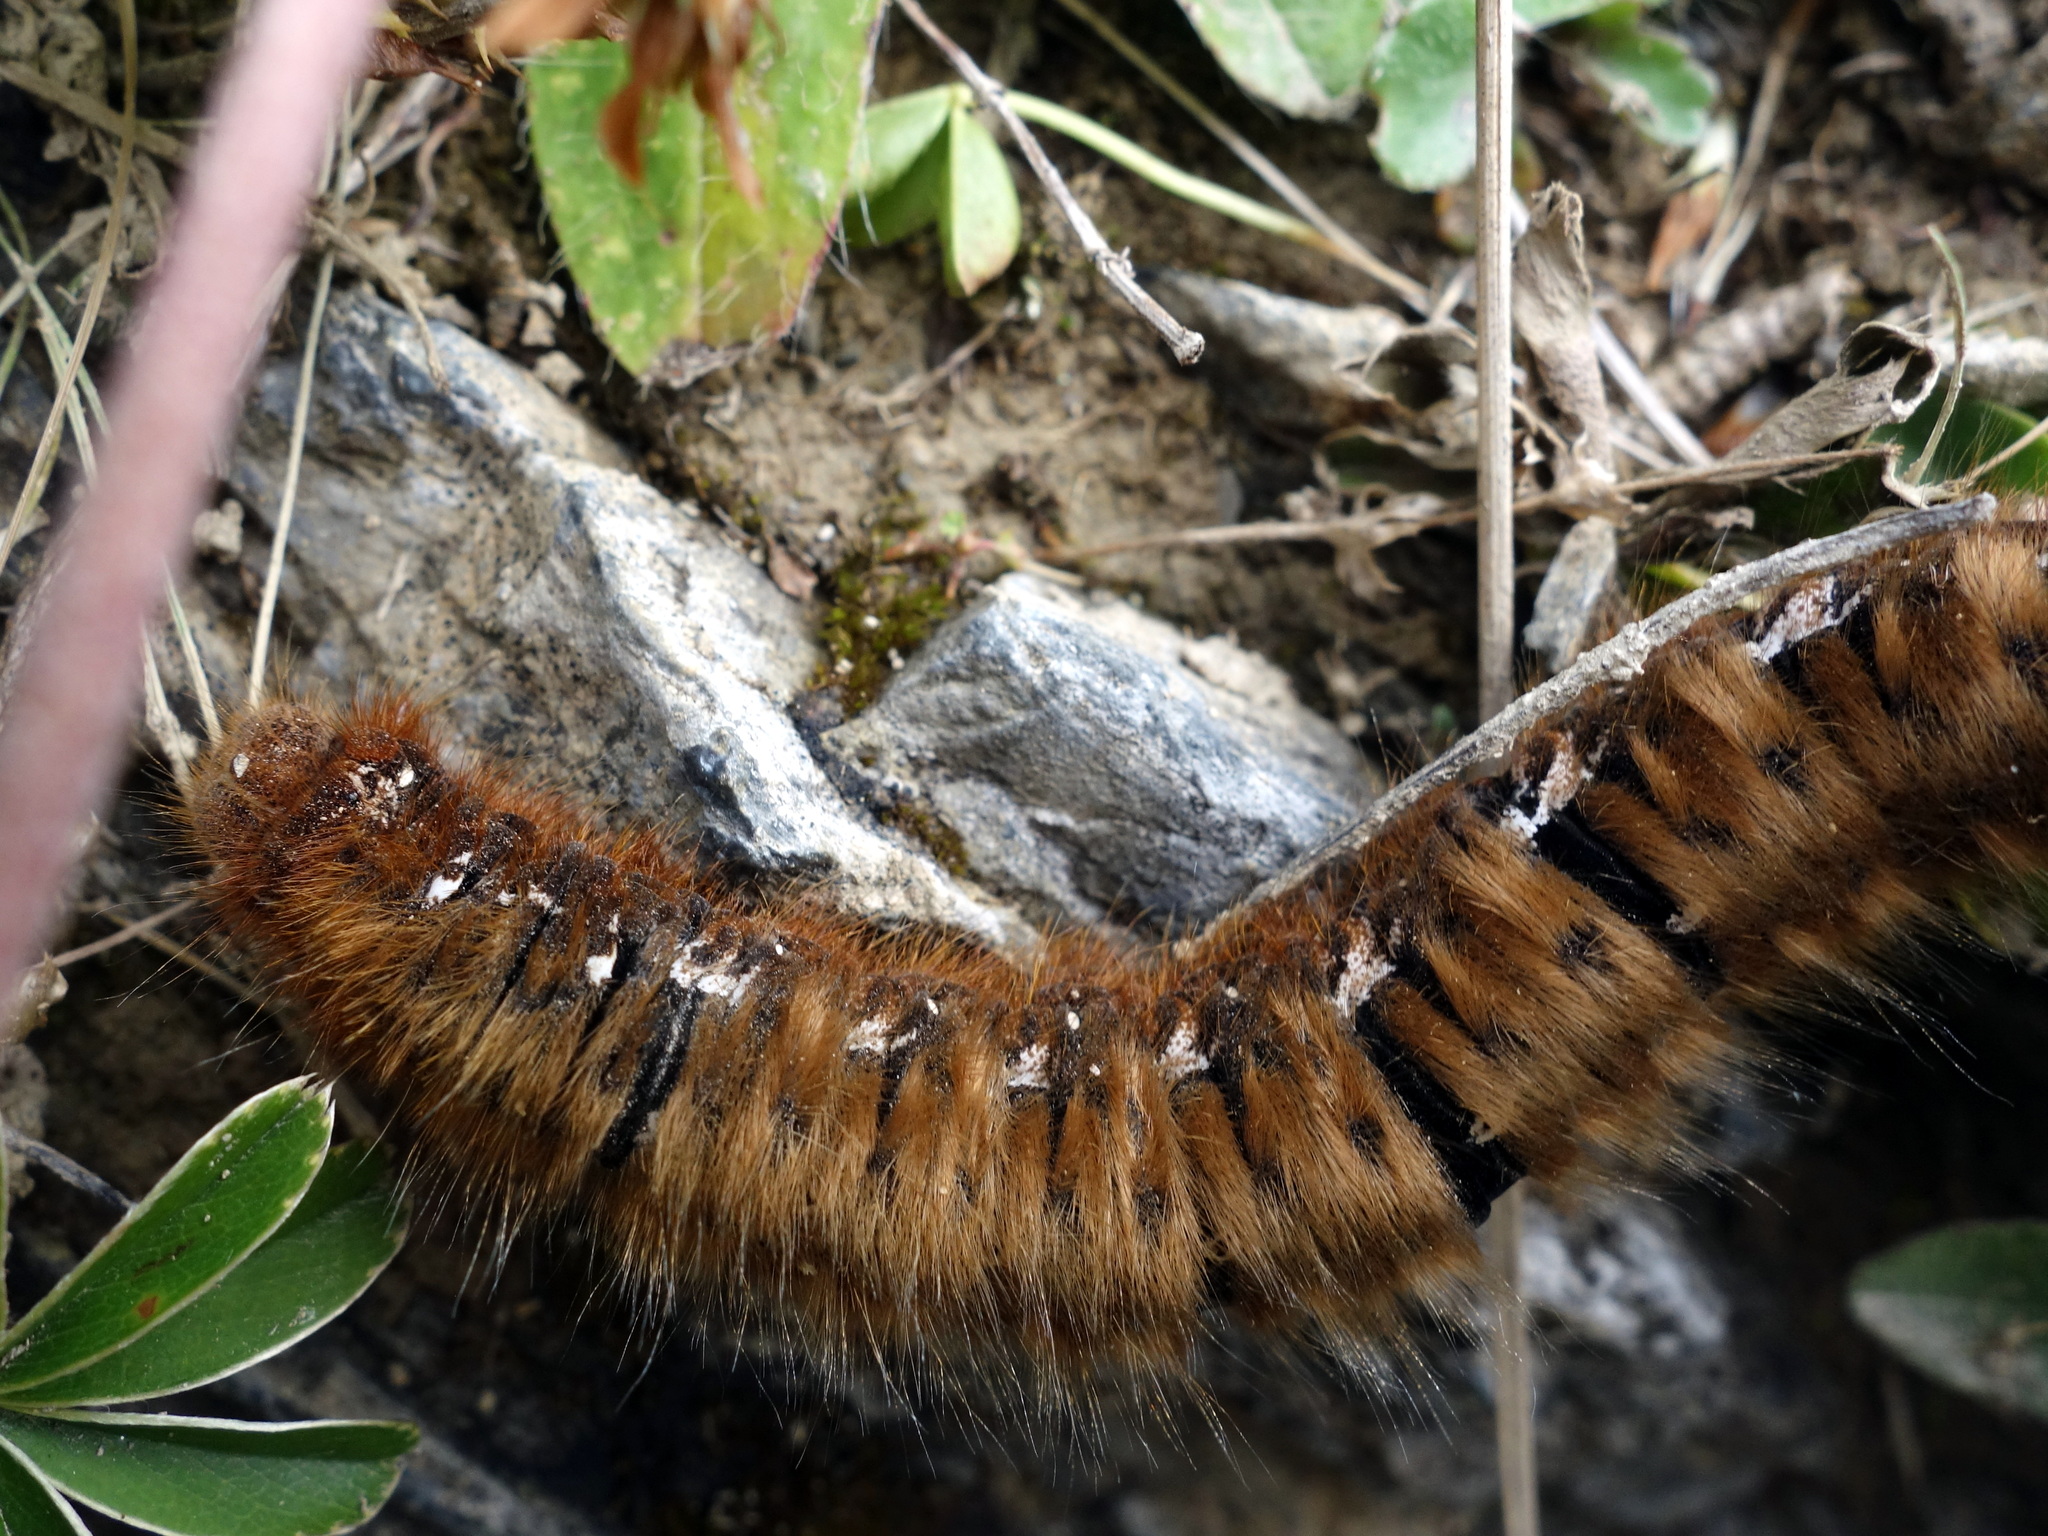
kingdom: Animalia
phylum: Arthropoda
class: Insecta
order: Lepidoptera
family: Lasiocampidae
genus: Lasiocampa
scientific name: Lasiocampa quercus
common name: Oak eggar
